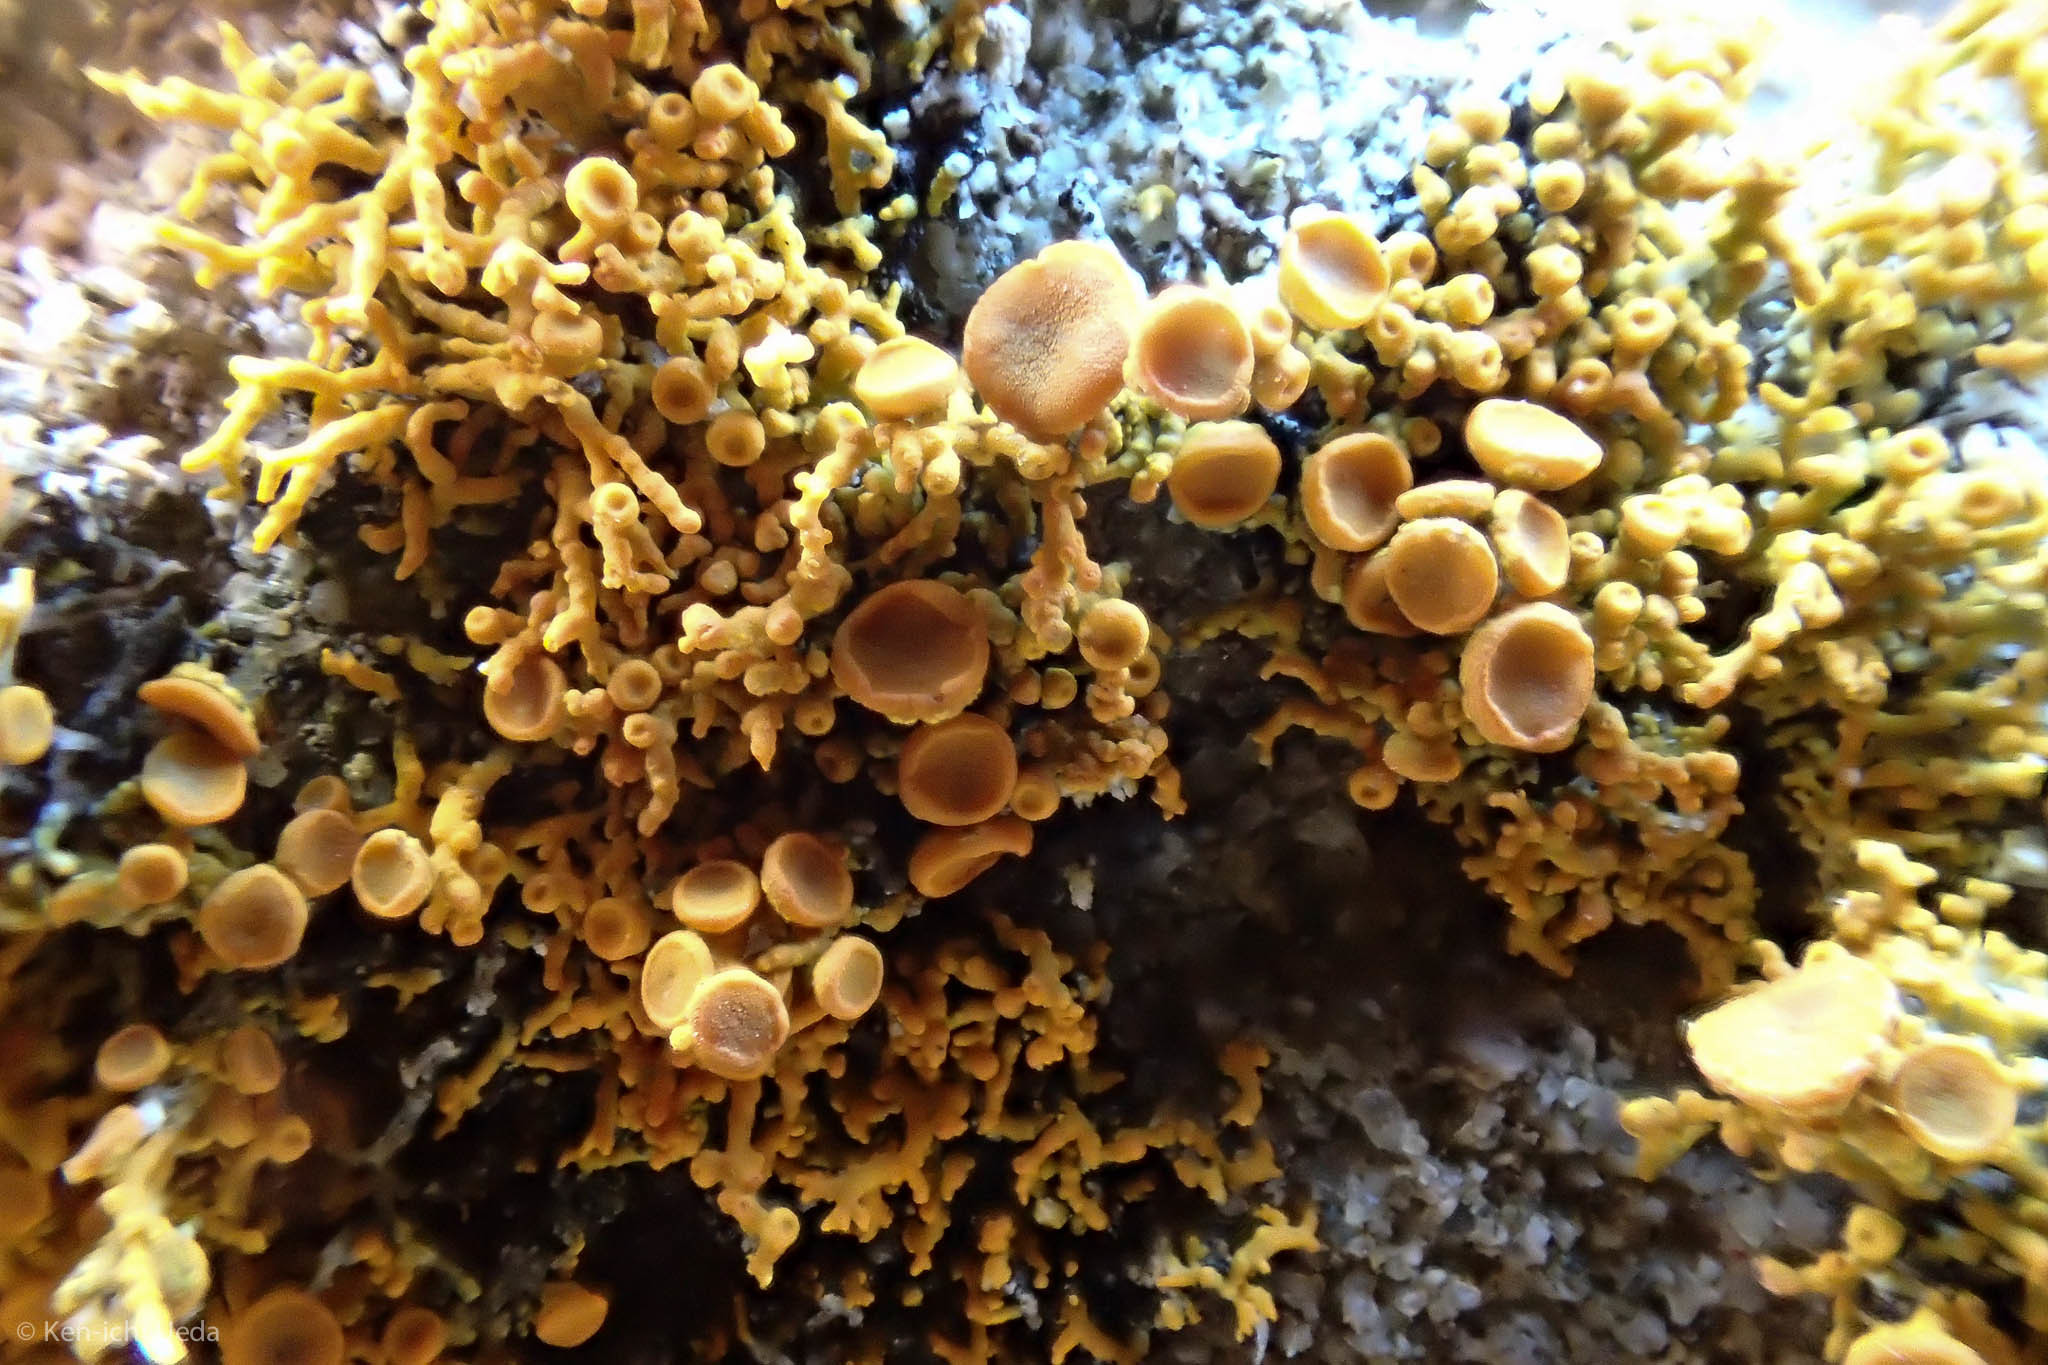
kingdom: Fungi
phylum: Ascomycota
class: Lecanoromycetes
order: Teloschistales
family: Teloschistaceae
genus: Polycauliona
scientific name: Polycauliona coralloides
